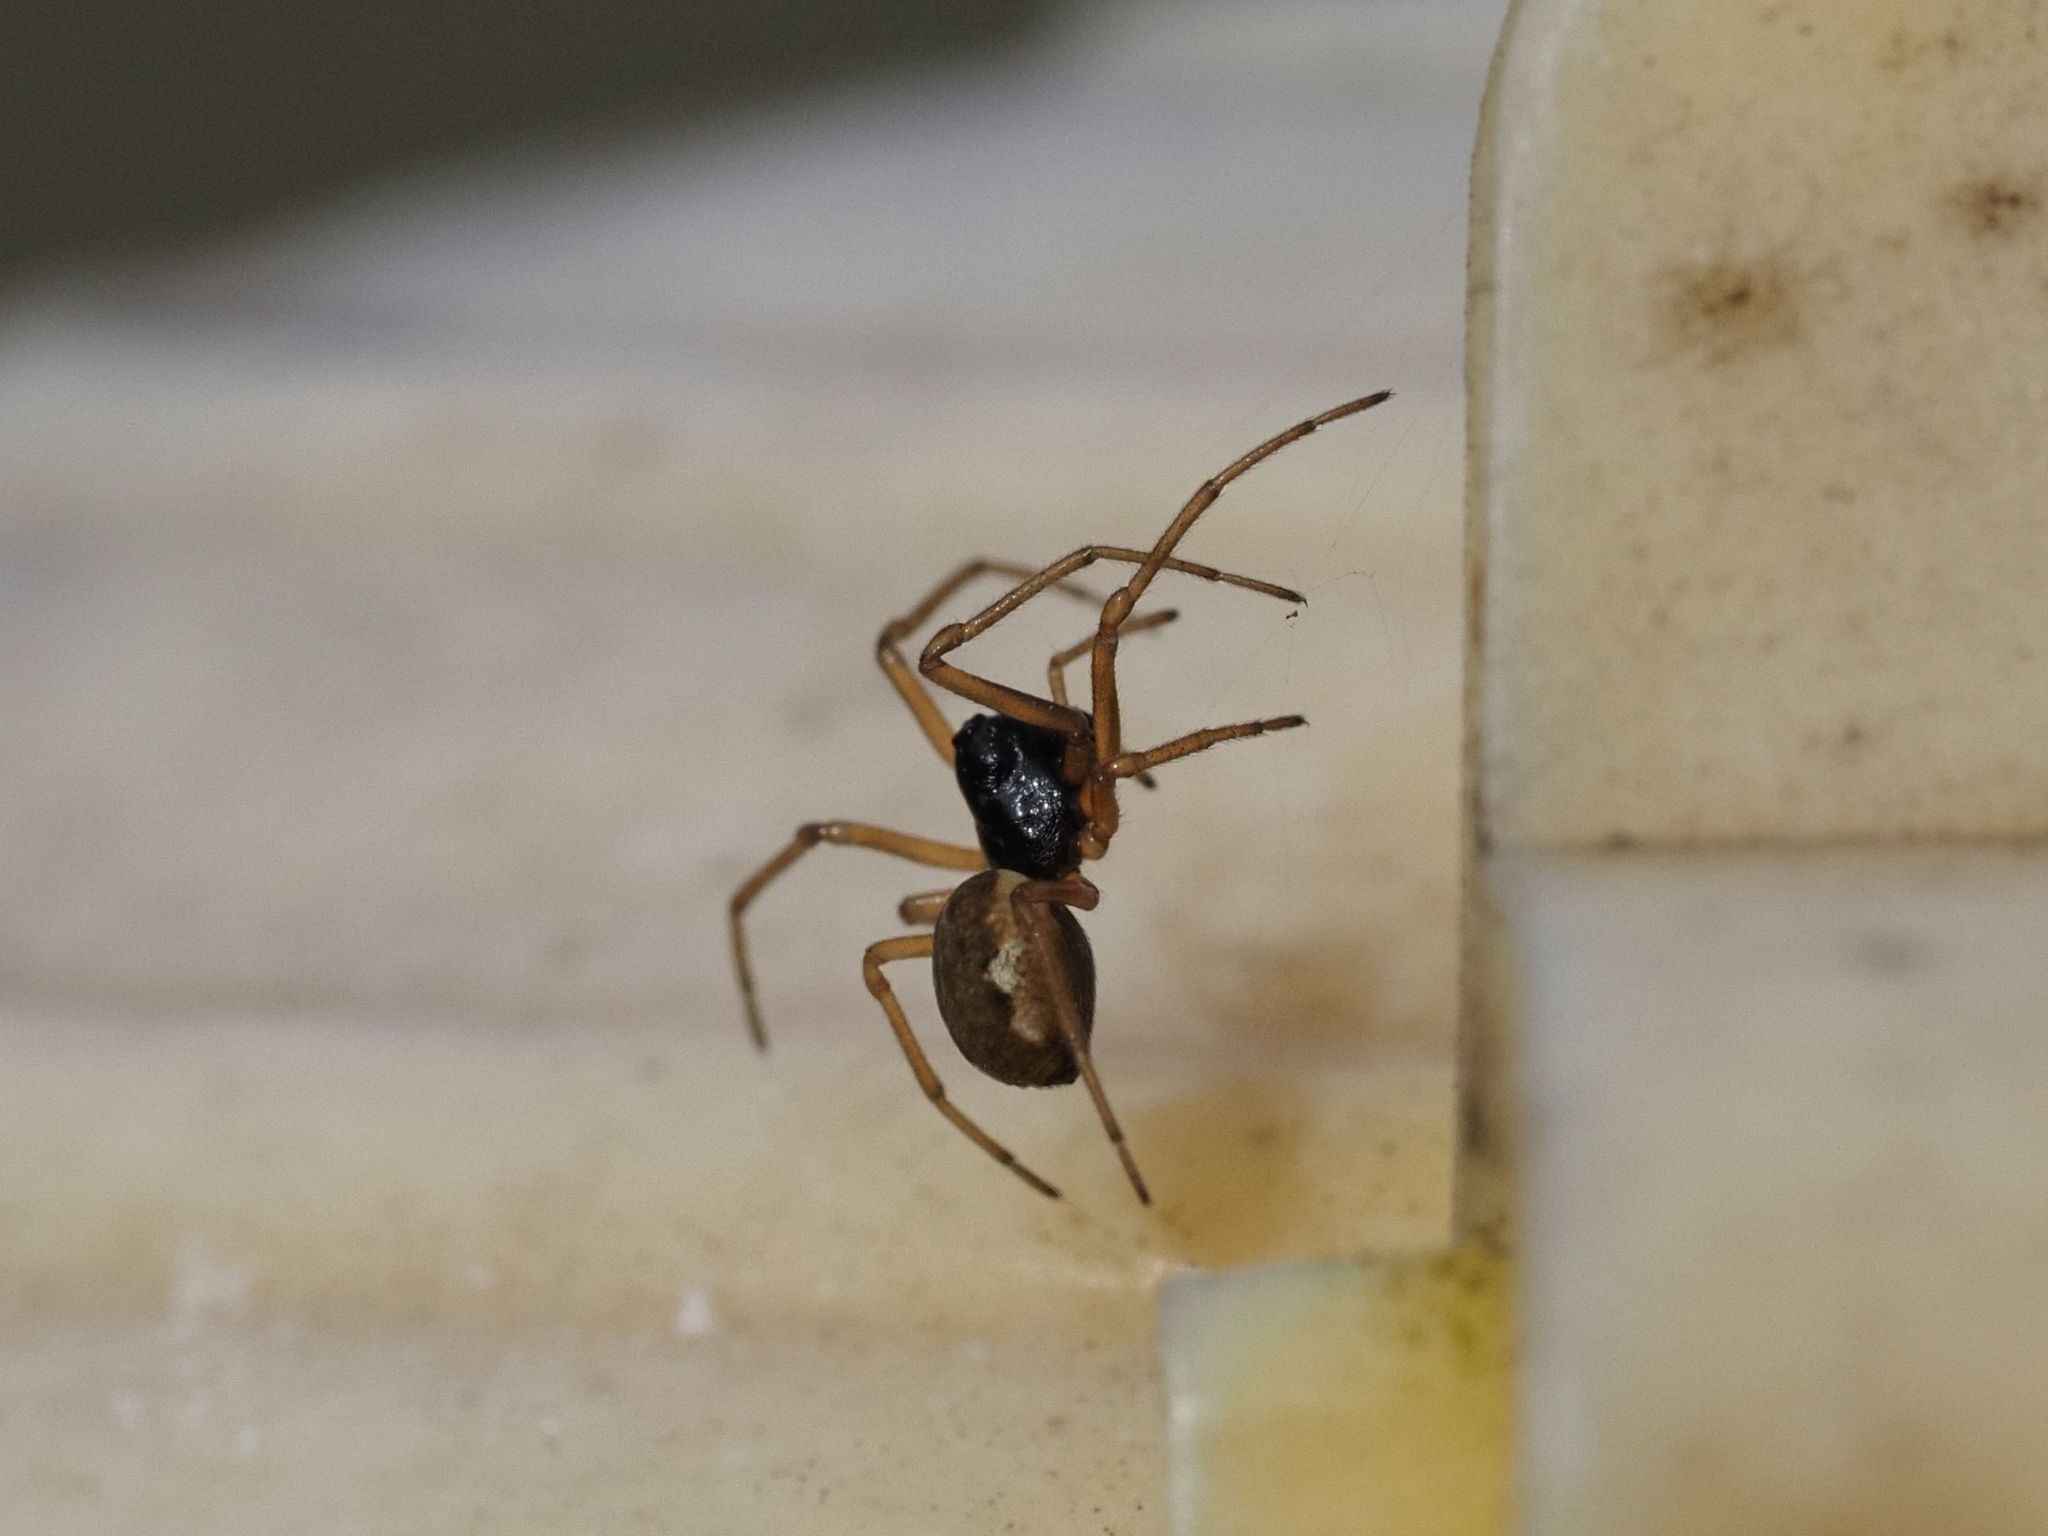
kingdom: Animalia
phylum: Arthropoda
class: Arachnida
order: Araneae
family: Tetragnathidae
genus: Pachygnatha
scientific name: Pachygnatha degeeri
